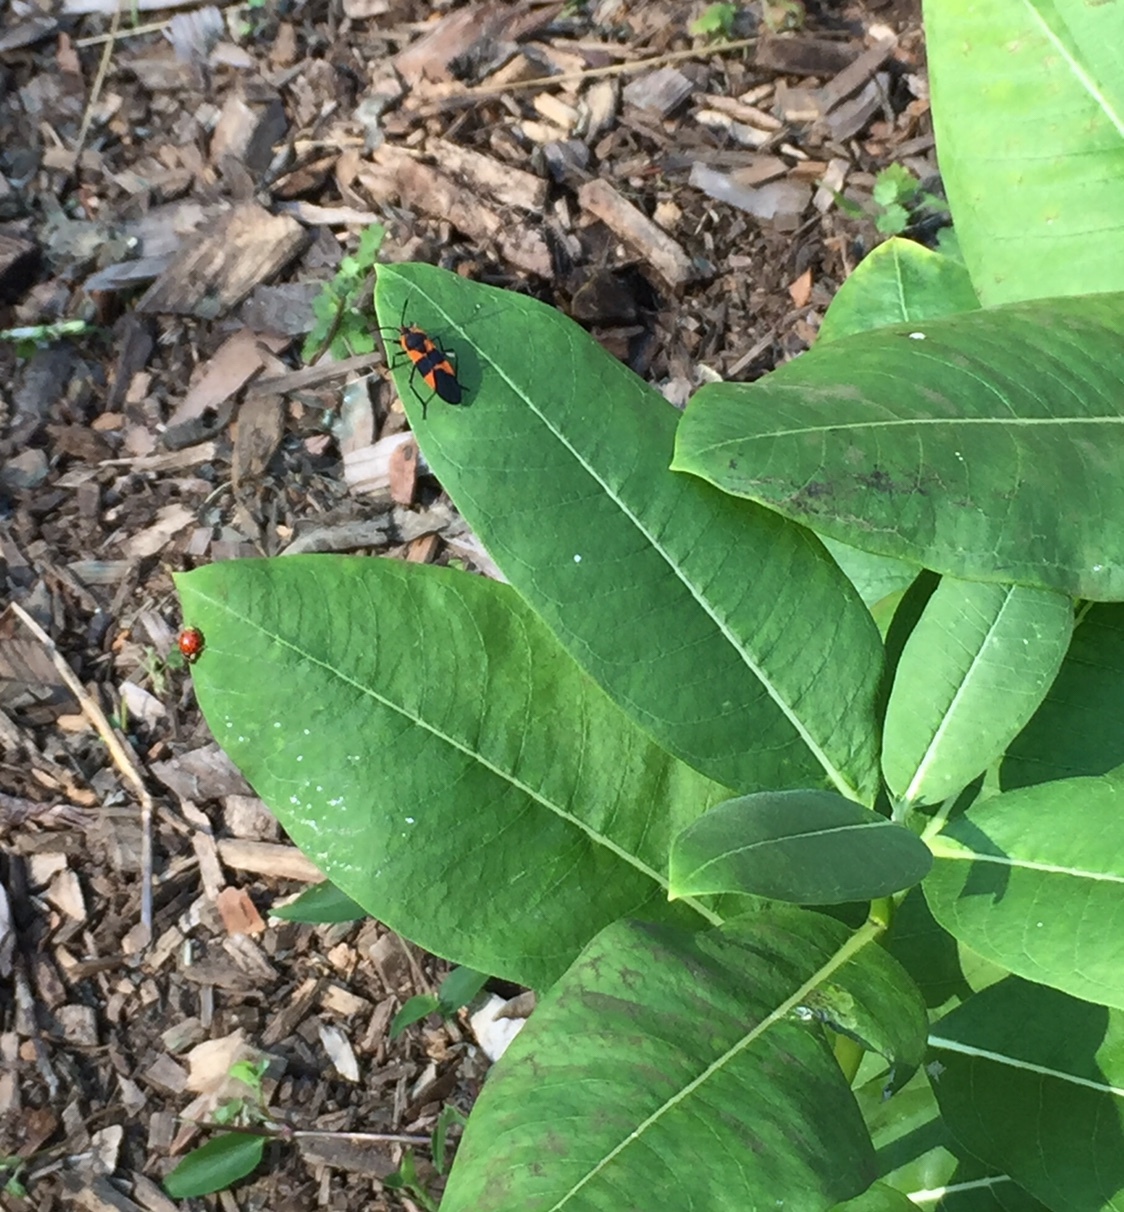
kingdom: Animalia
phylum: Arthropoda
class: Insecta
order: Hemiptera
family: Lygaeidae
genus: Oncopeltus
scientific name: Oncopeltus fasciatus
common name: Large milkweed bug
